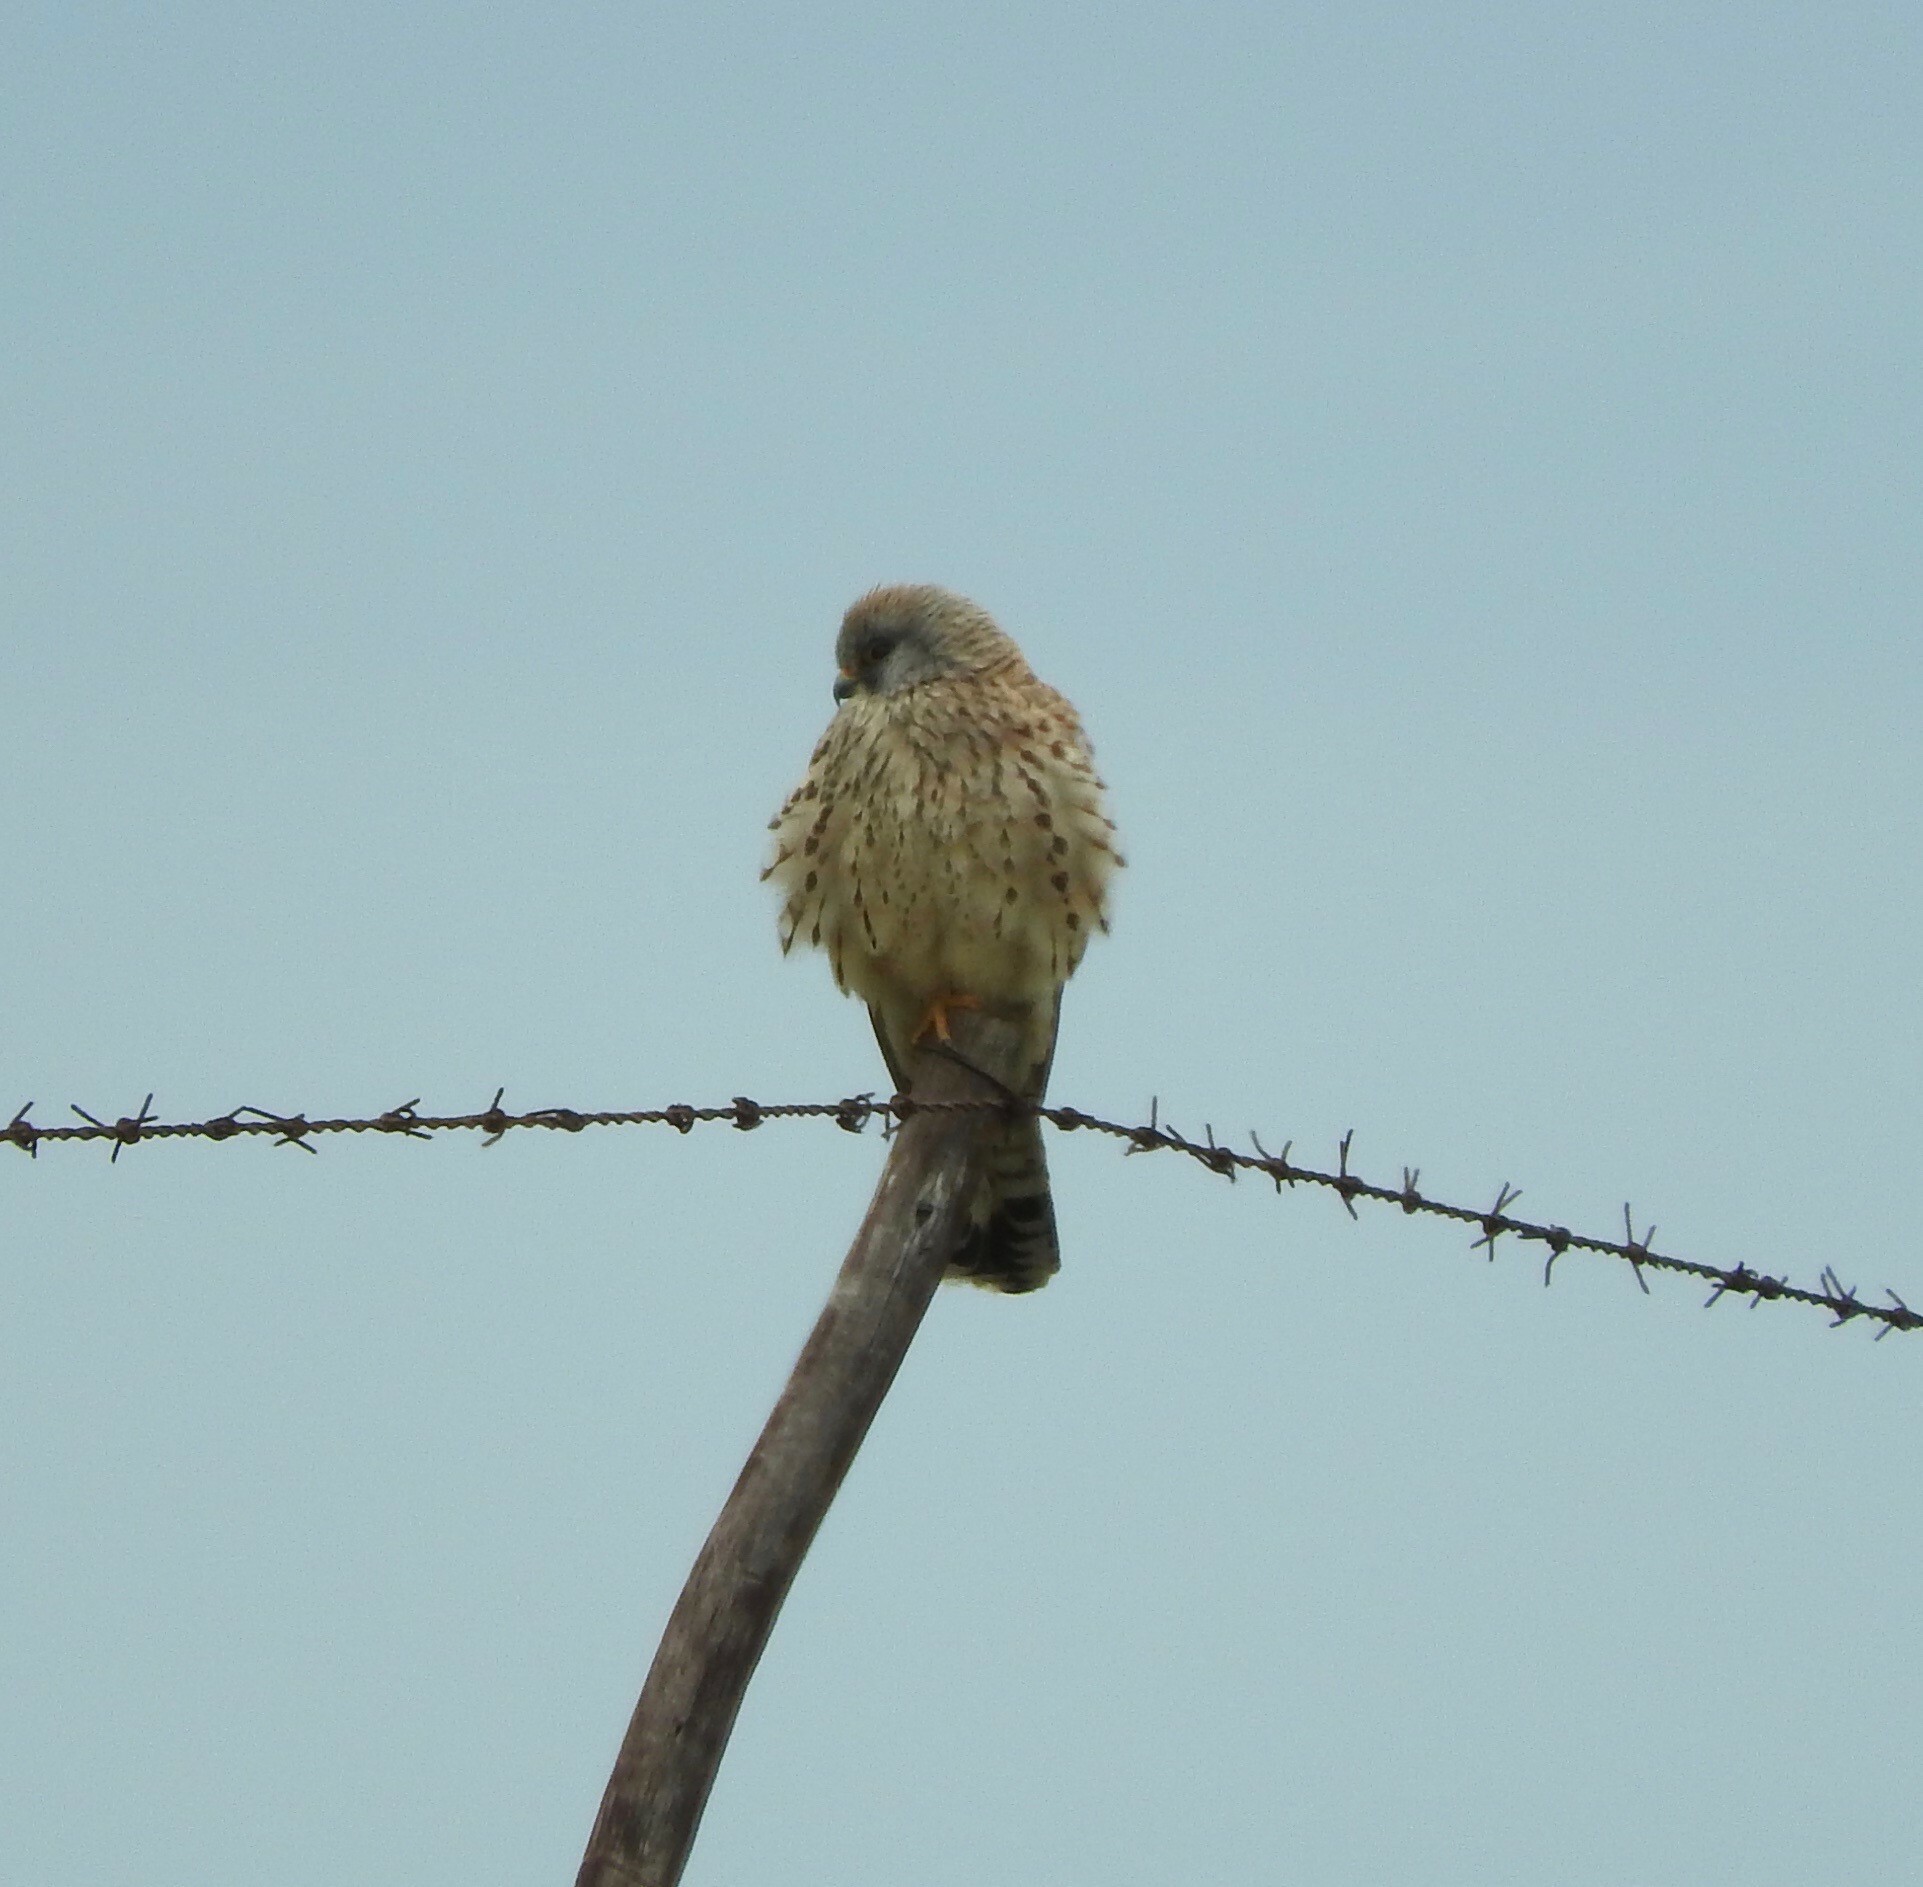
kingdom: Animalia
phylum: Chordata
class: Aves
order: Falconiformes
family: Falconidae
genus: Falco
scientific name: Falco naumanni
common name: Lesser kestrel
